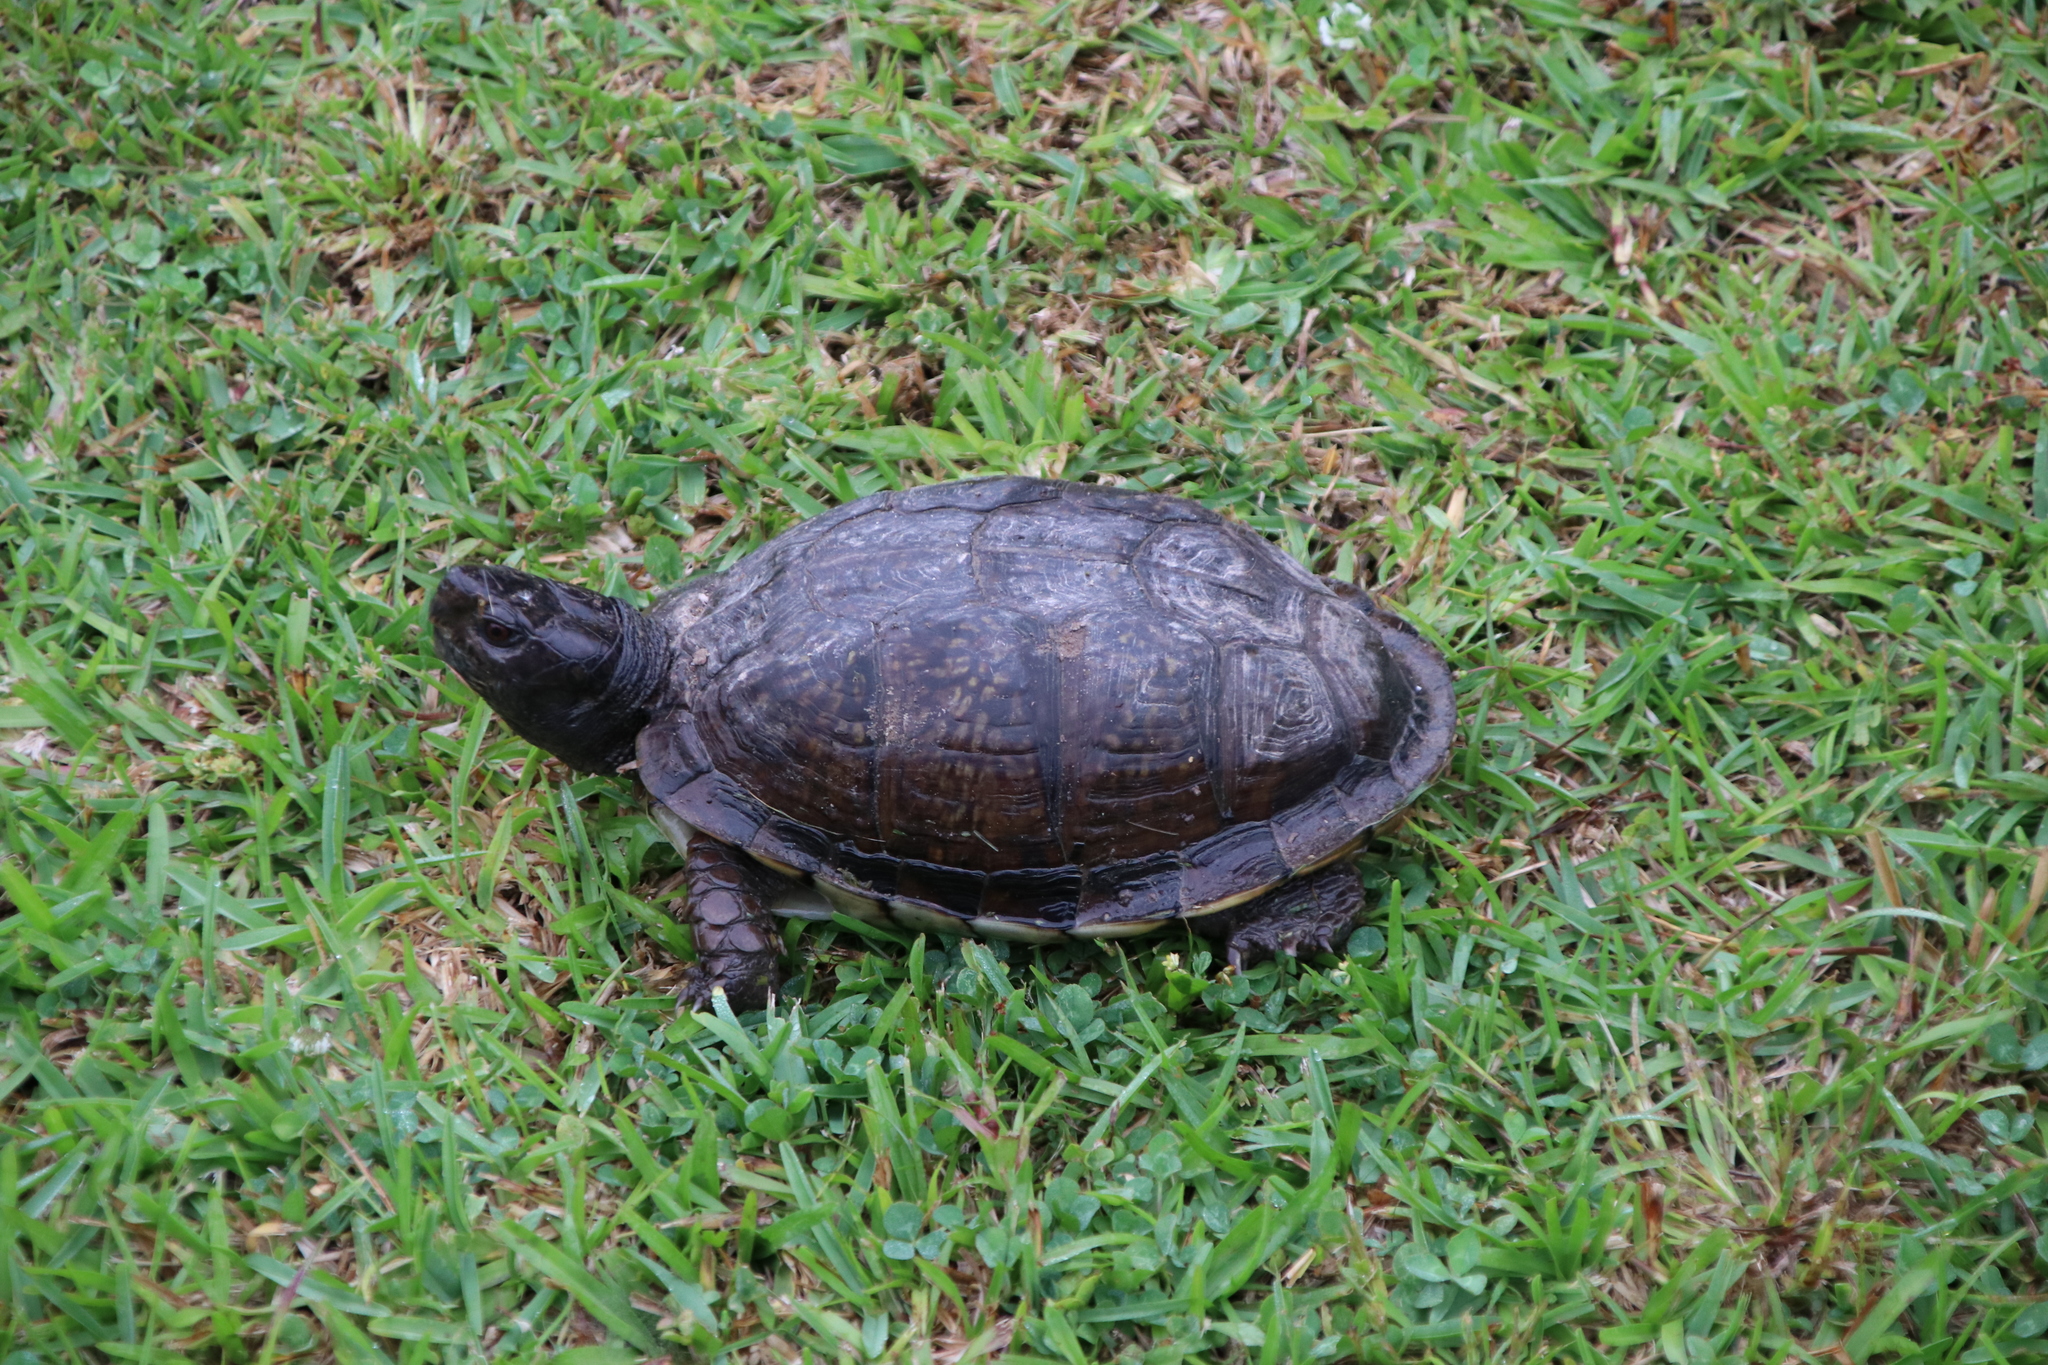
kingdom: Animalia
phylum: Chordata
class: Testudines
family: Emydidae
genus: Terrapene
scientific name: Terrapene carolina
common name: Common box turtle
